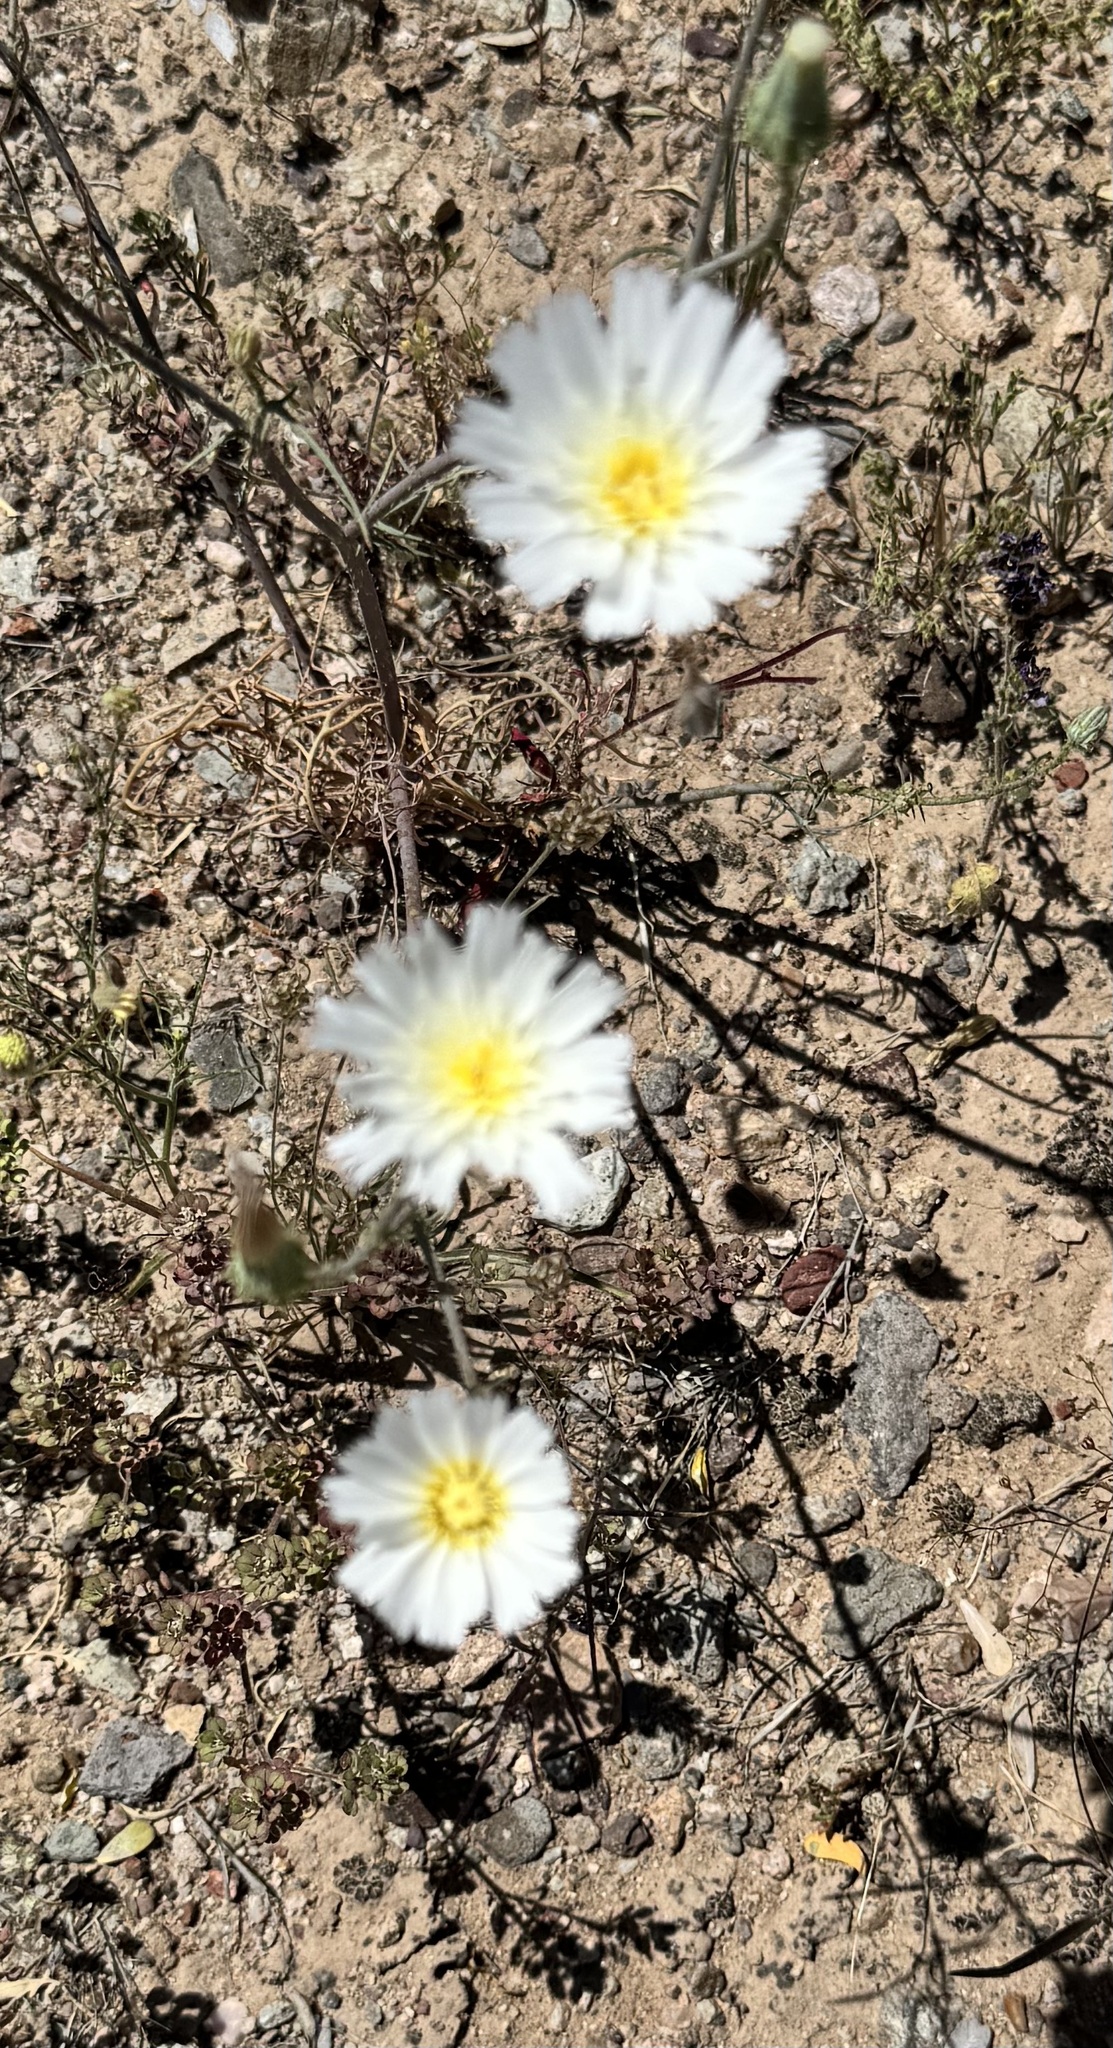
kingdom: Plantae
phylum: Tracheophyta
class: Magnoliopsida
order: Asterales
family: Asteraceae
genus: Calycoseris
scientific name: Calycoseris wrightii
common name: White tackstem
